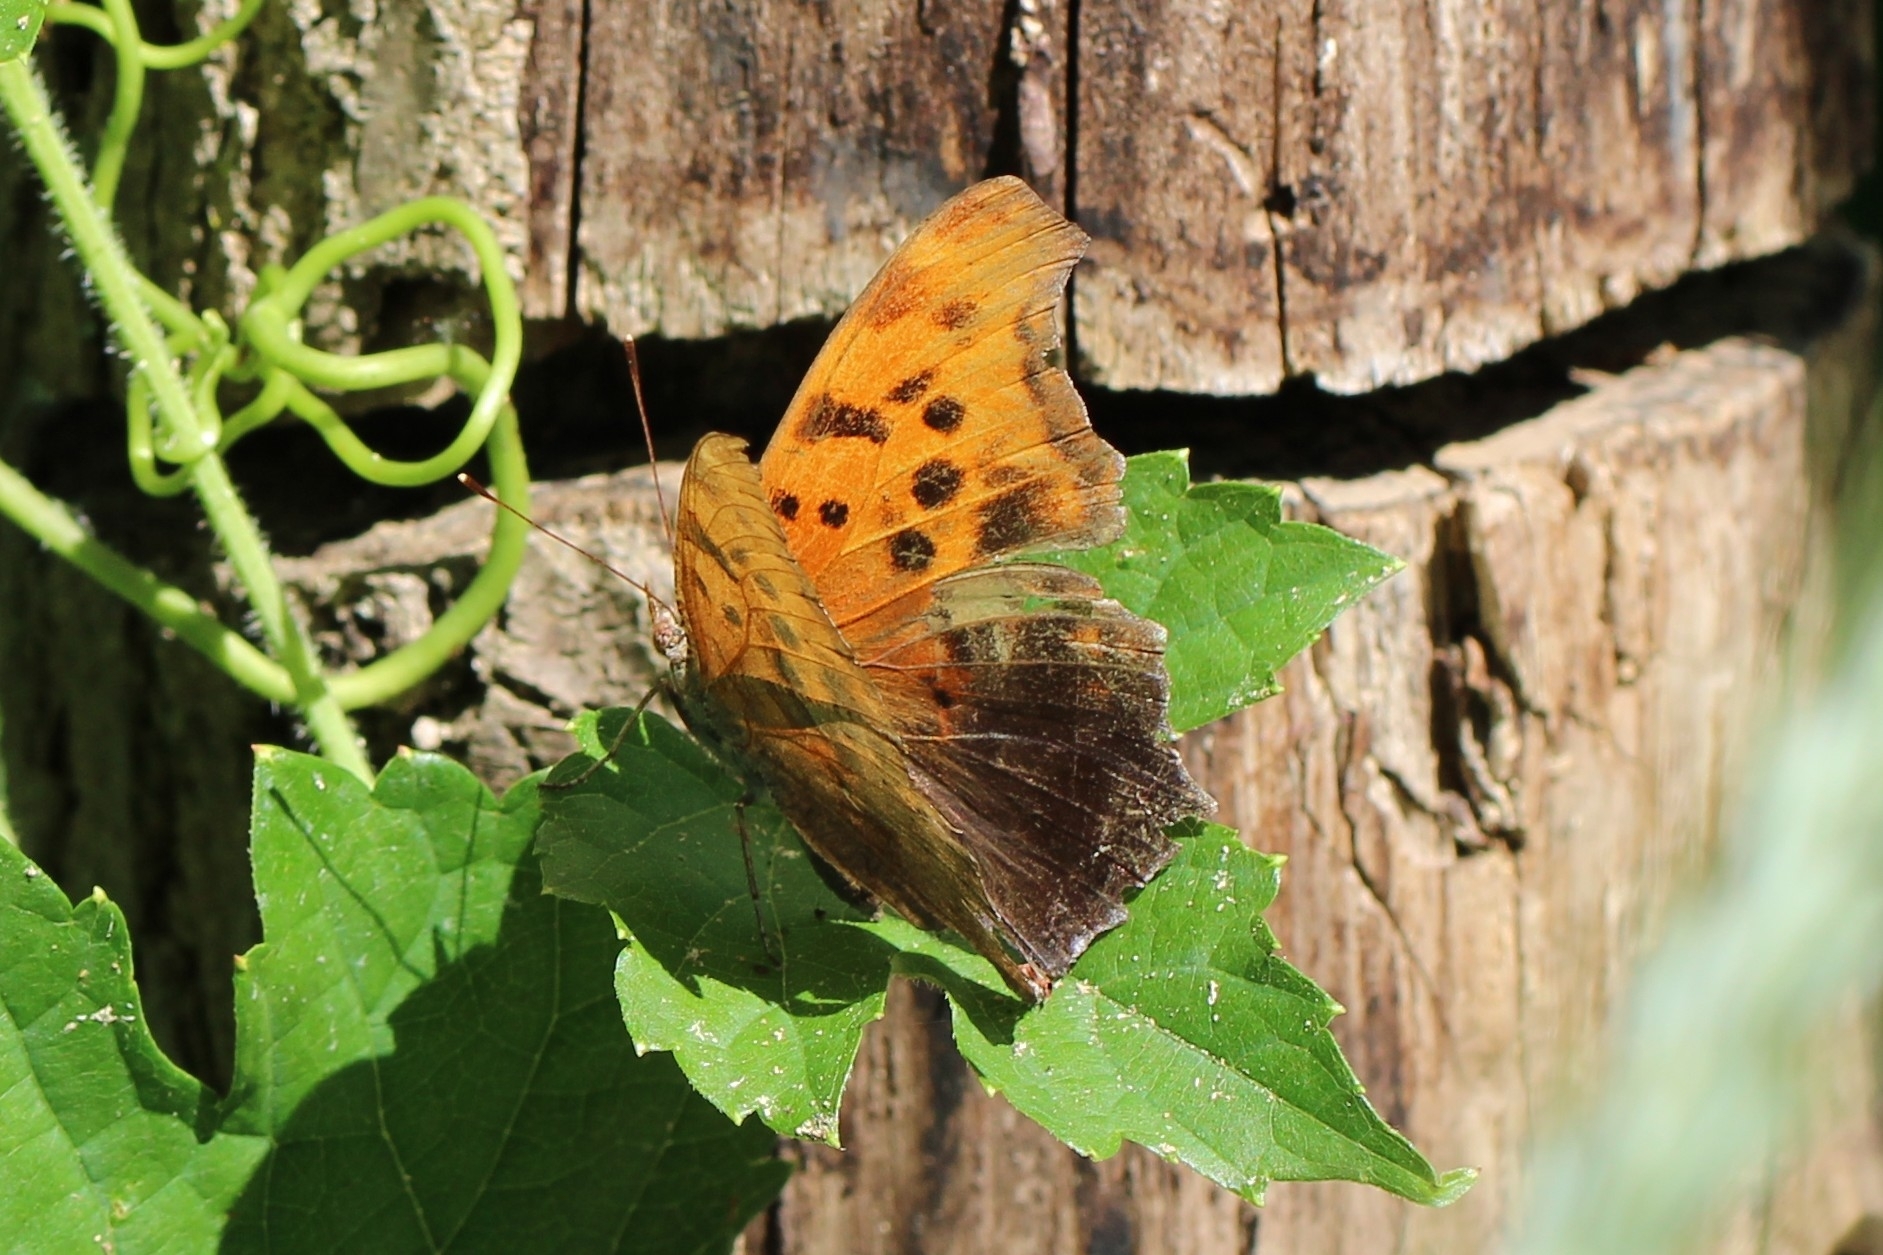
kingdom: Animalia
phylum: Arthropoda
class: Insecta
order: Lepidoptera
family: Nymphalidae
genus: Polygonia
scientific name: Polygonia interrogationis
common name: Question mark
